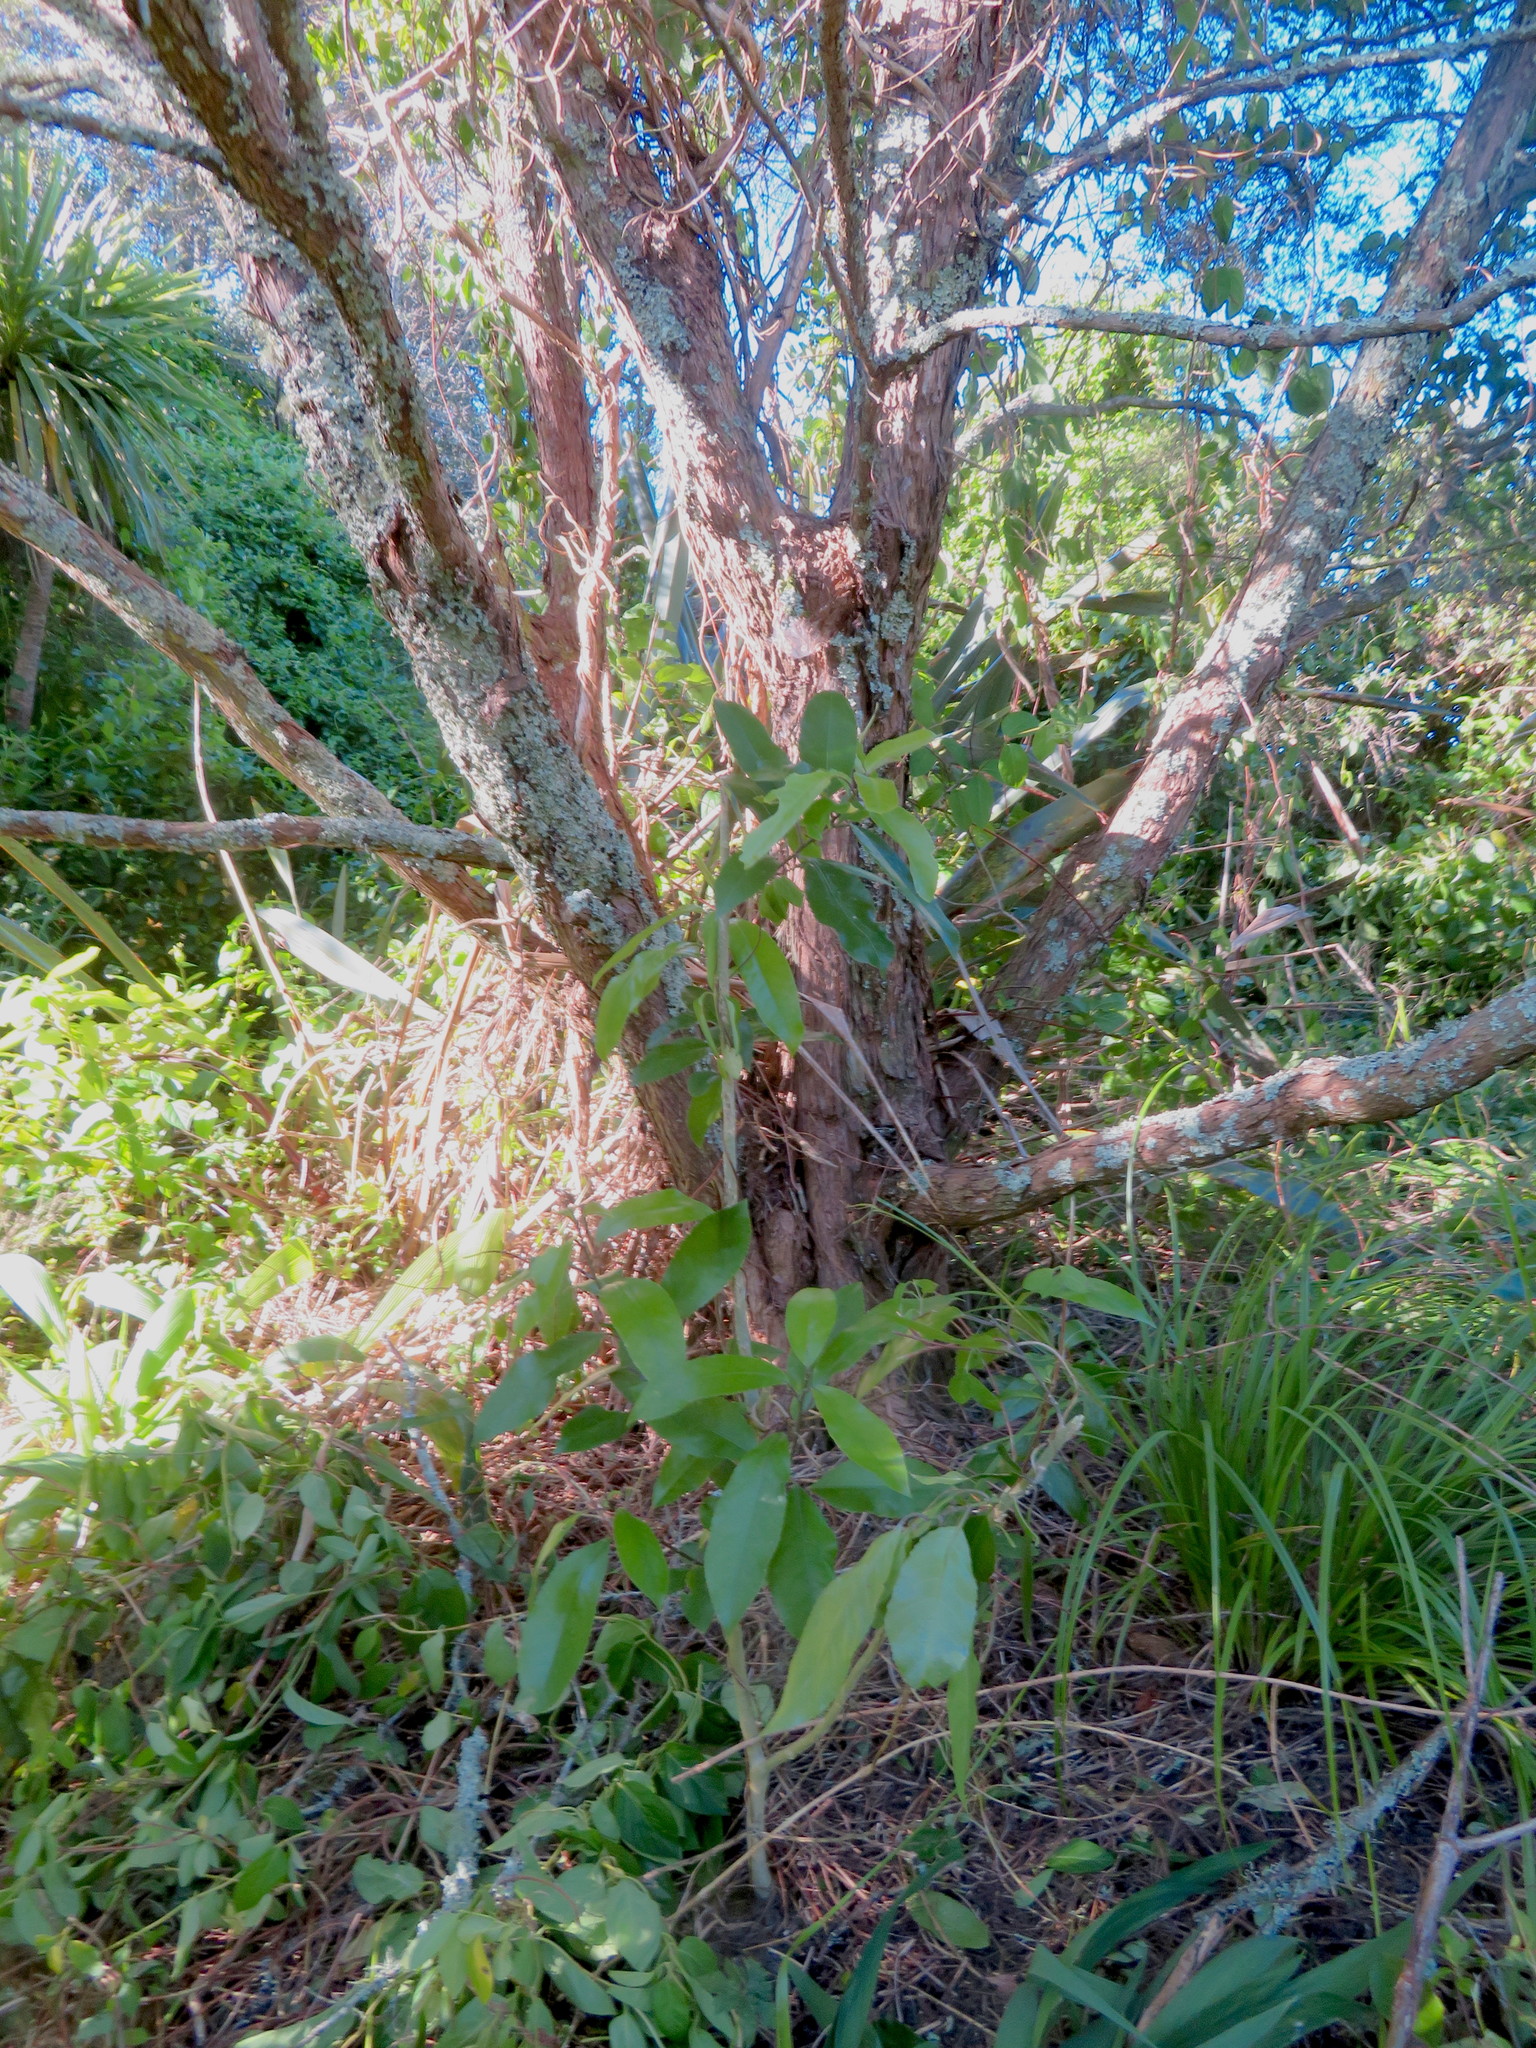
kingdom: Plantae
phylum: Tracheophyta
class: Magnoliopsida
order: Malpighiales
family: Violaceae
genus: Melicytus
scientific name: Melicytus ramiflorus
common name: Mahoe
